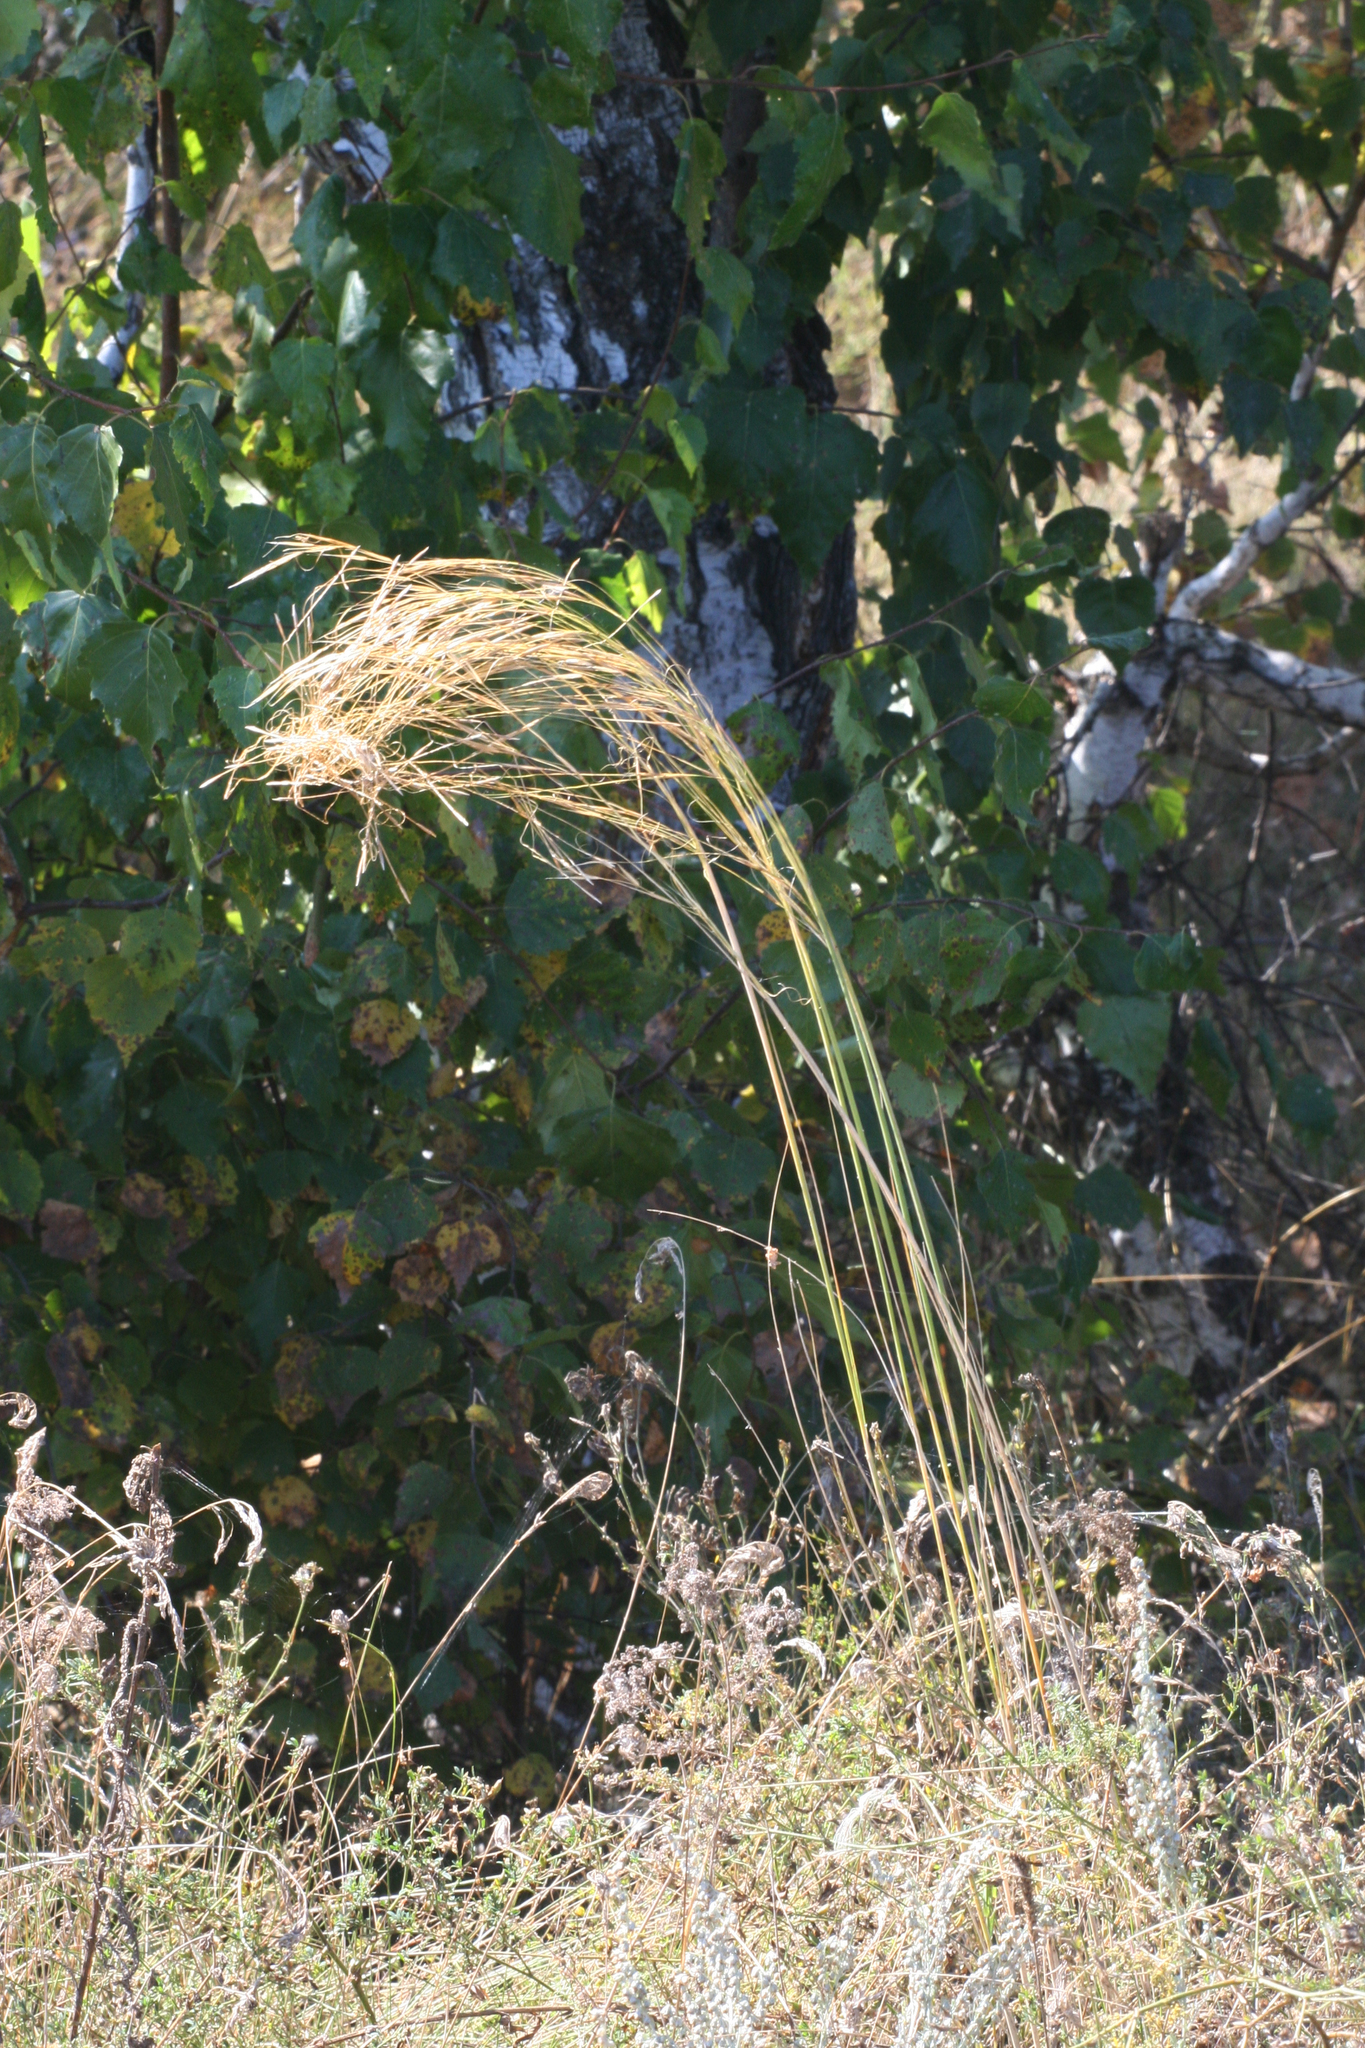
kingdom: Plantae
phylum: Tracheophyta
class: Liliopsida
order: Poales
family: Poaceae
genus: Stipa
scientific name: Stipa capillata
